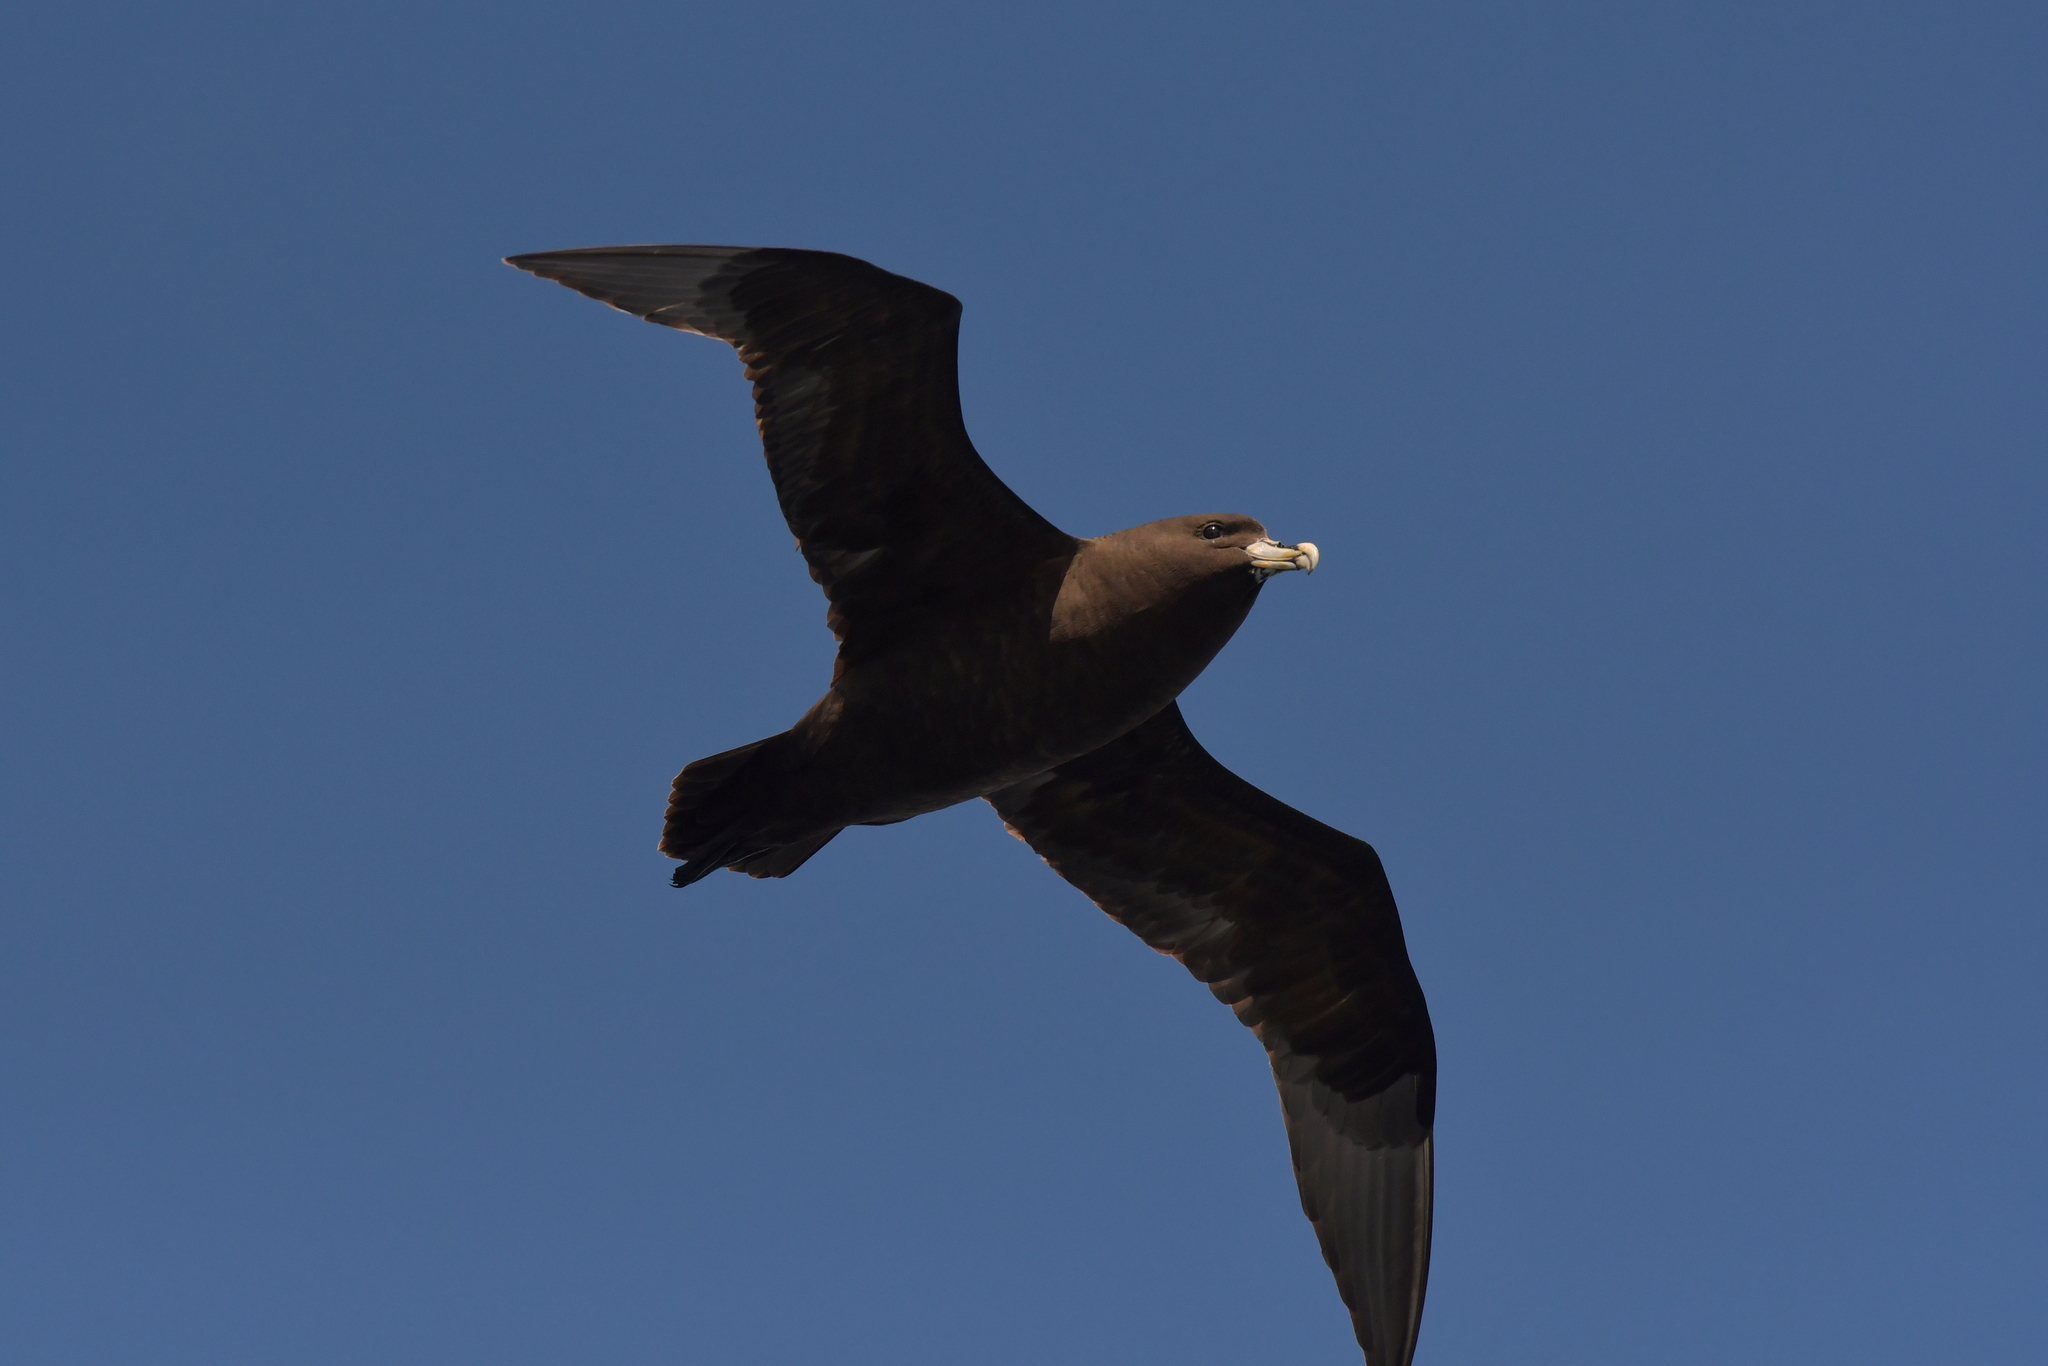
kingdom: Animalia
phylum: Chordata
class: Aves
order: Procellariiformes
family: Procellariidae
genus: Procellaria
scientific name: Procellaria aequinoctialis
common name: White-chinned petrel
